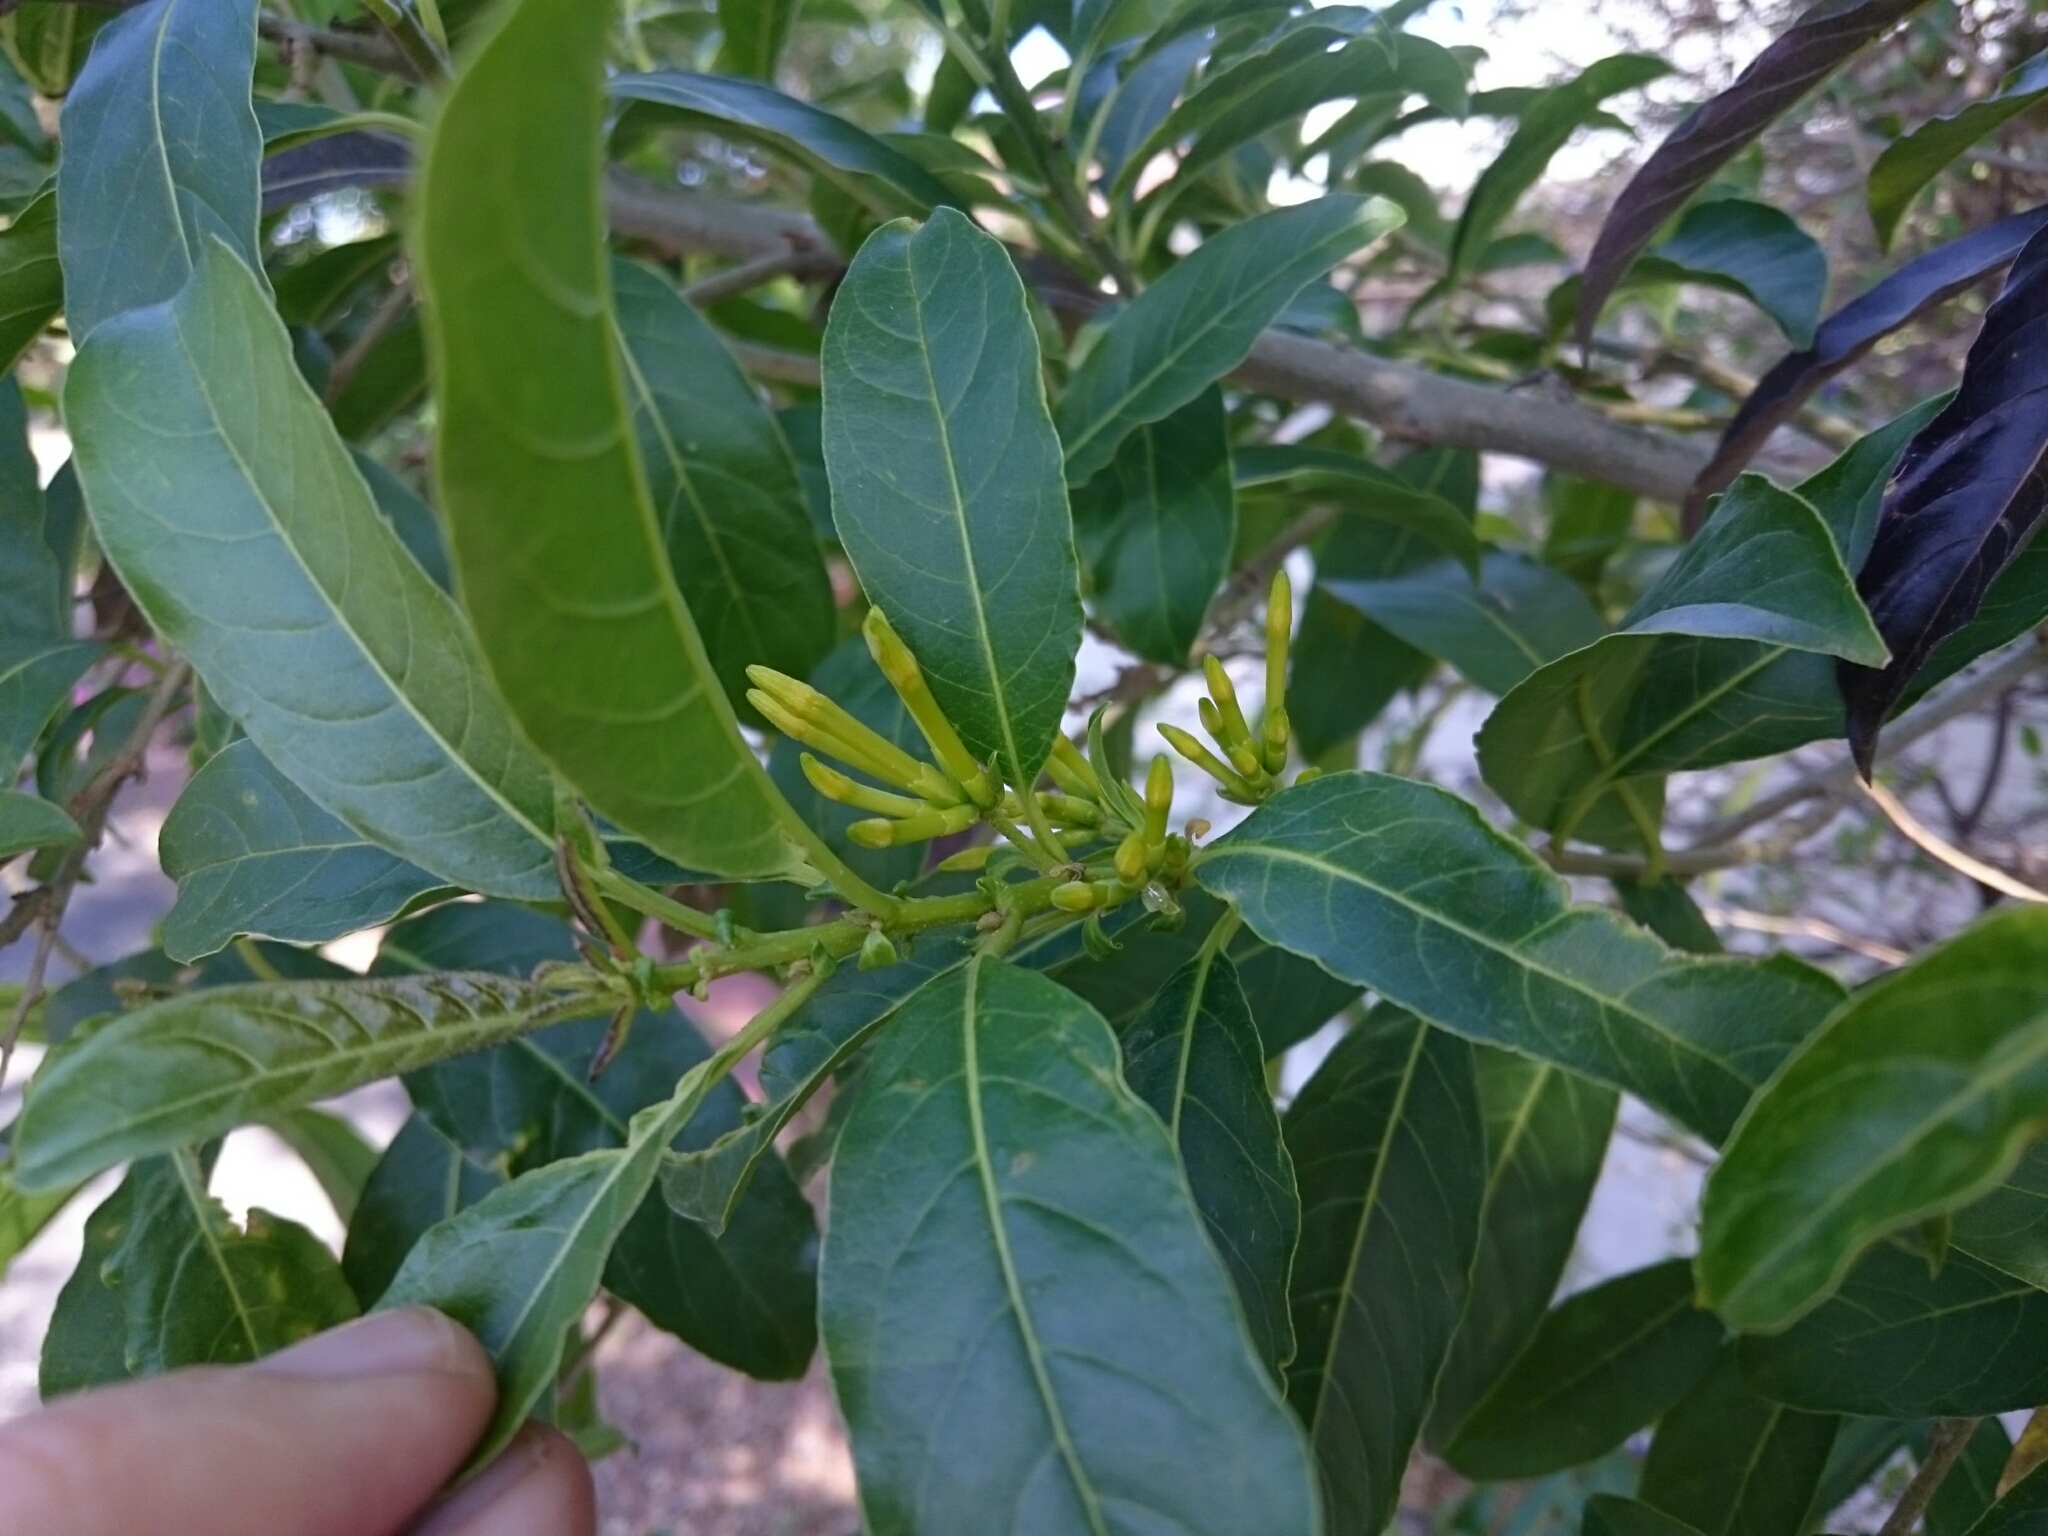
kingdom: Plantae
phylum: Tracheophyta
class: Magnoliopsida
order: Solanales
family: Solanaceae
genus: Cestrum
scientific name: Cestrum laevigatum
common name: Inkberry
